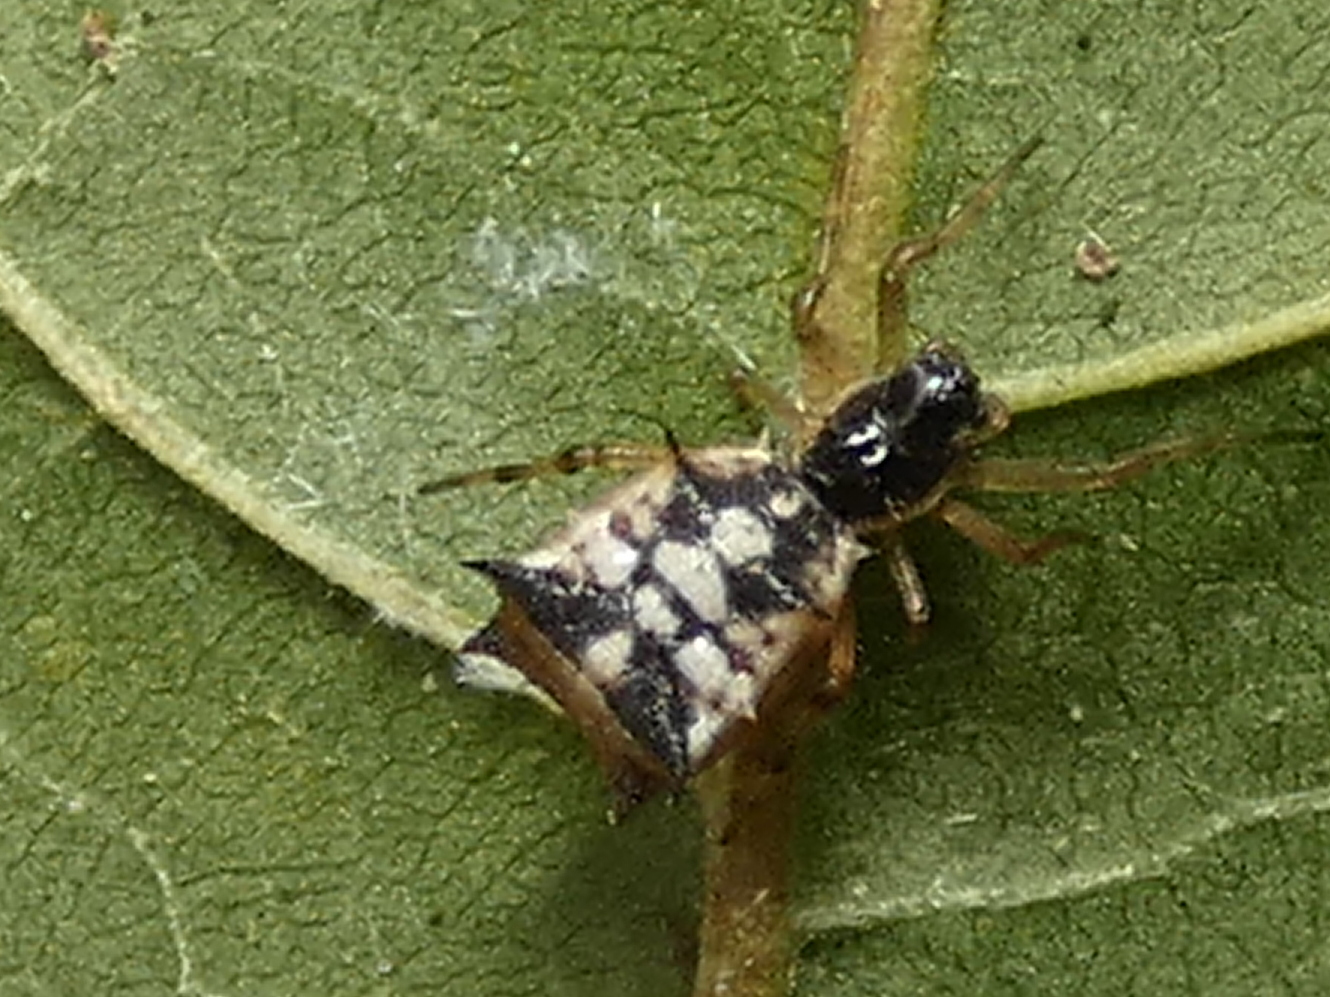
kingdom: Animalia
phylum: Arthropoda
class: Arachnida
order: Araneae
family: Araneidae
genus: Micrathena
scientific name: Micrathena picta
